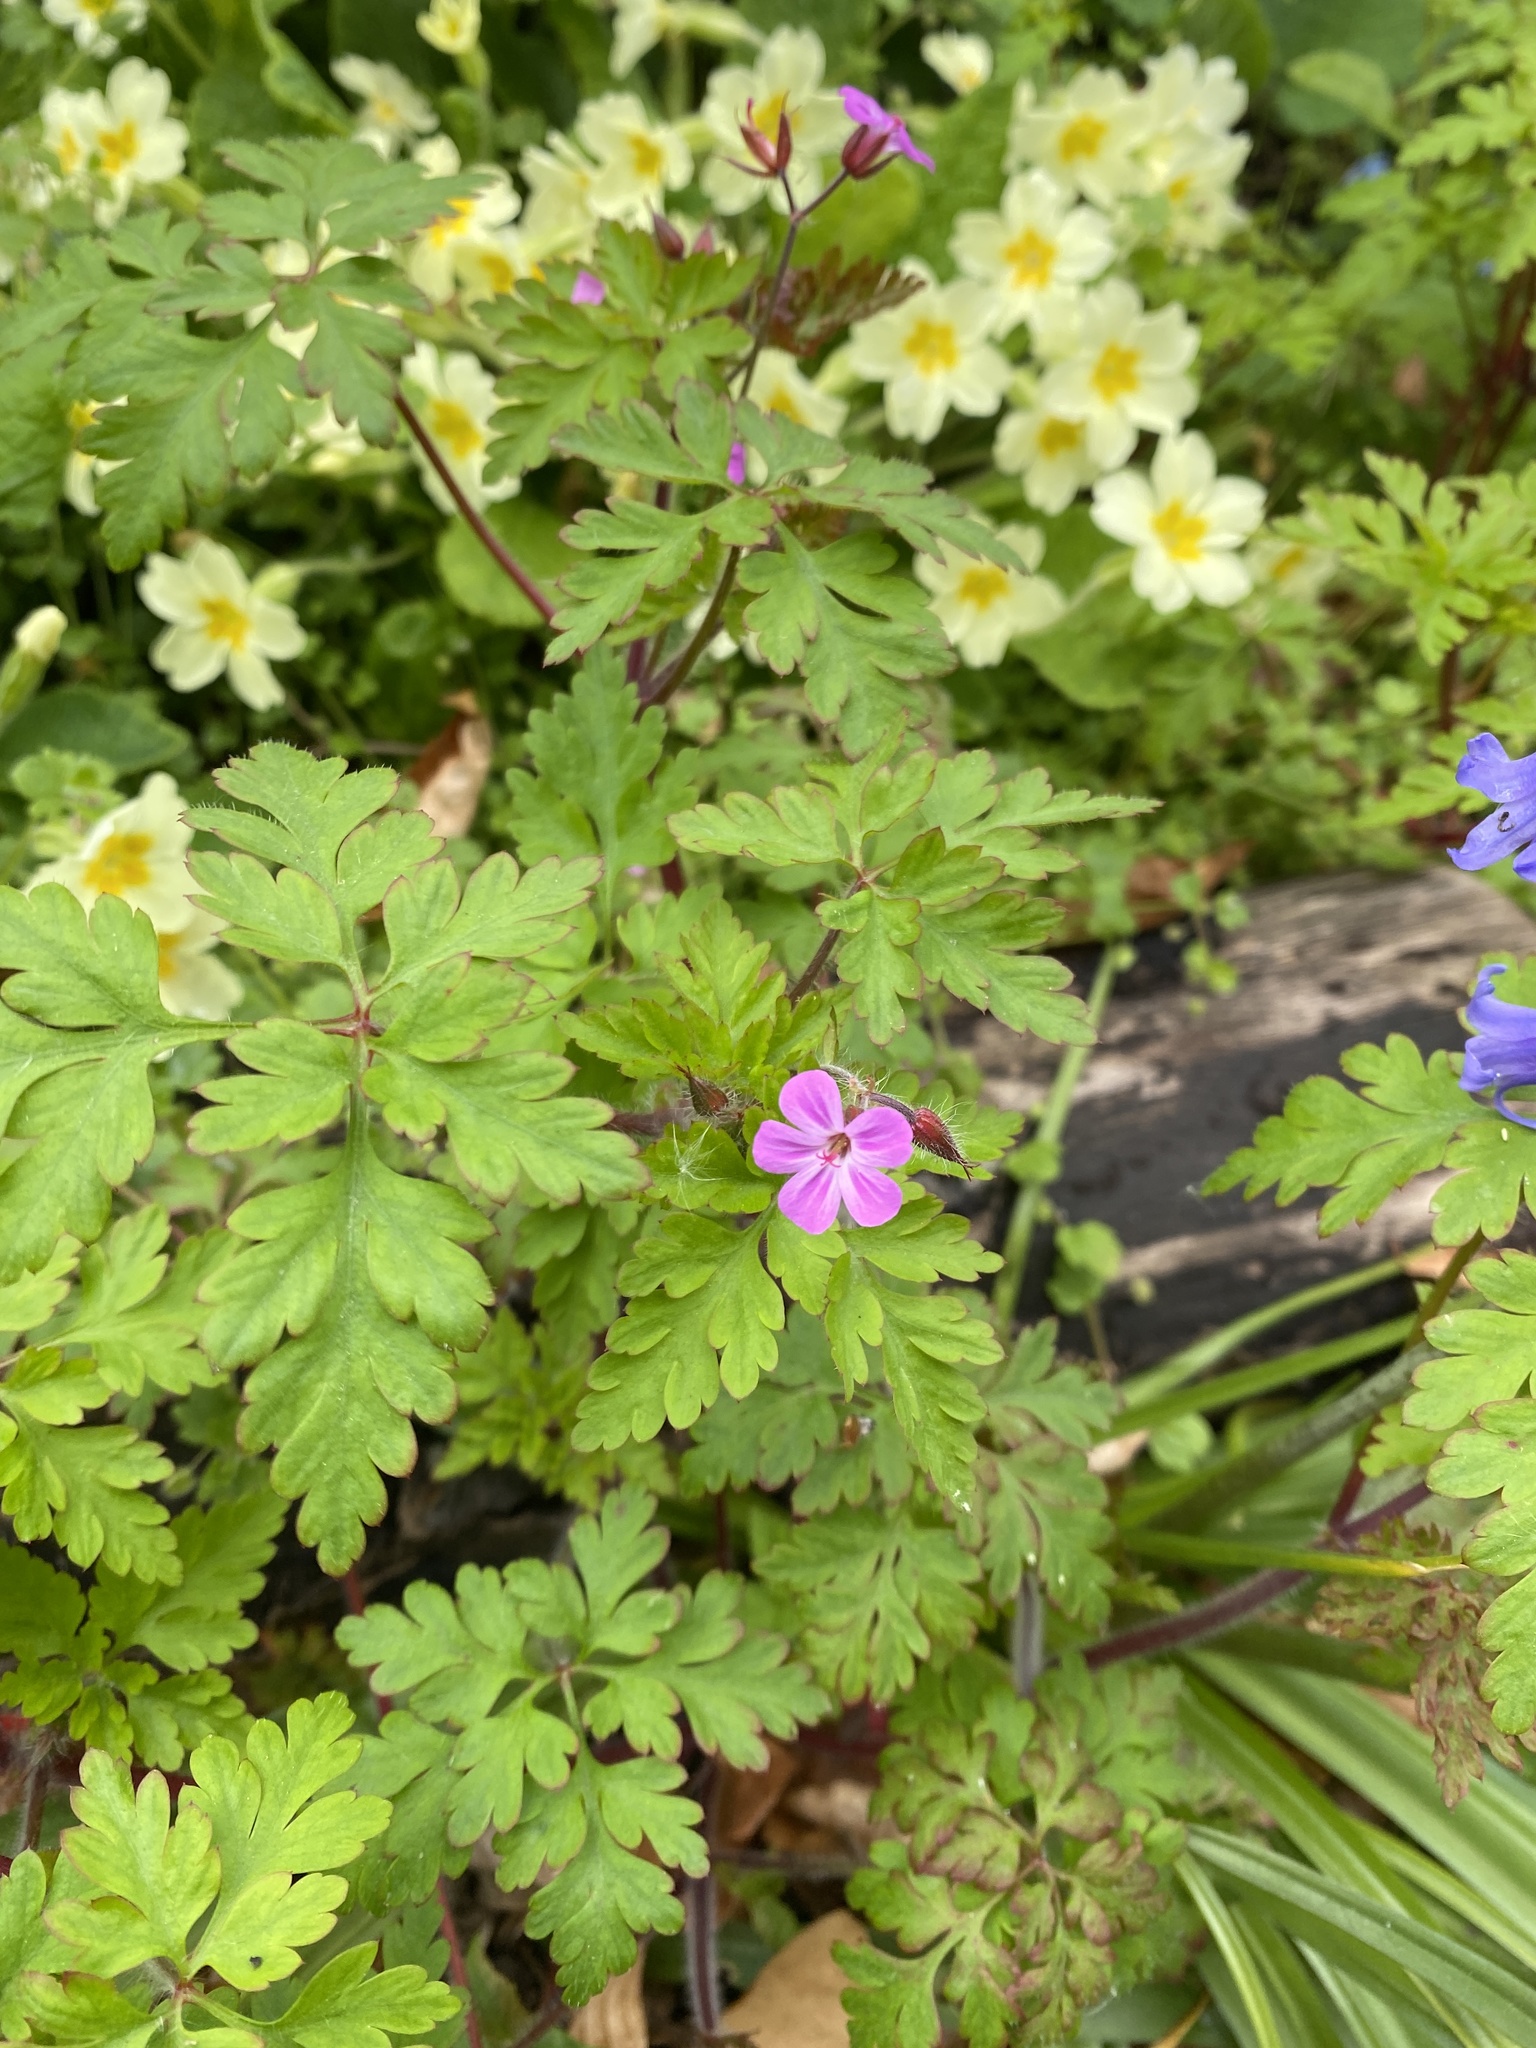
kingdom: Plantae
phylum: Tracheophyta
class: Magnoliopsida
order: Geraniales
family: Geraniaceae
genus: Geranium
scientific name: Geranium robertianum
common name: Herb-robert
